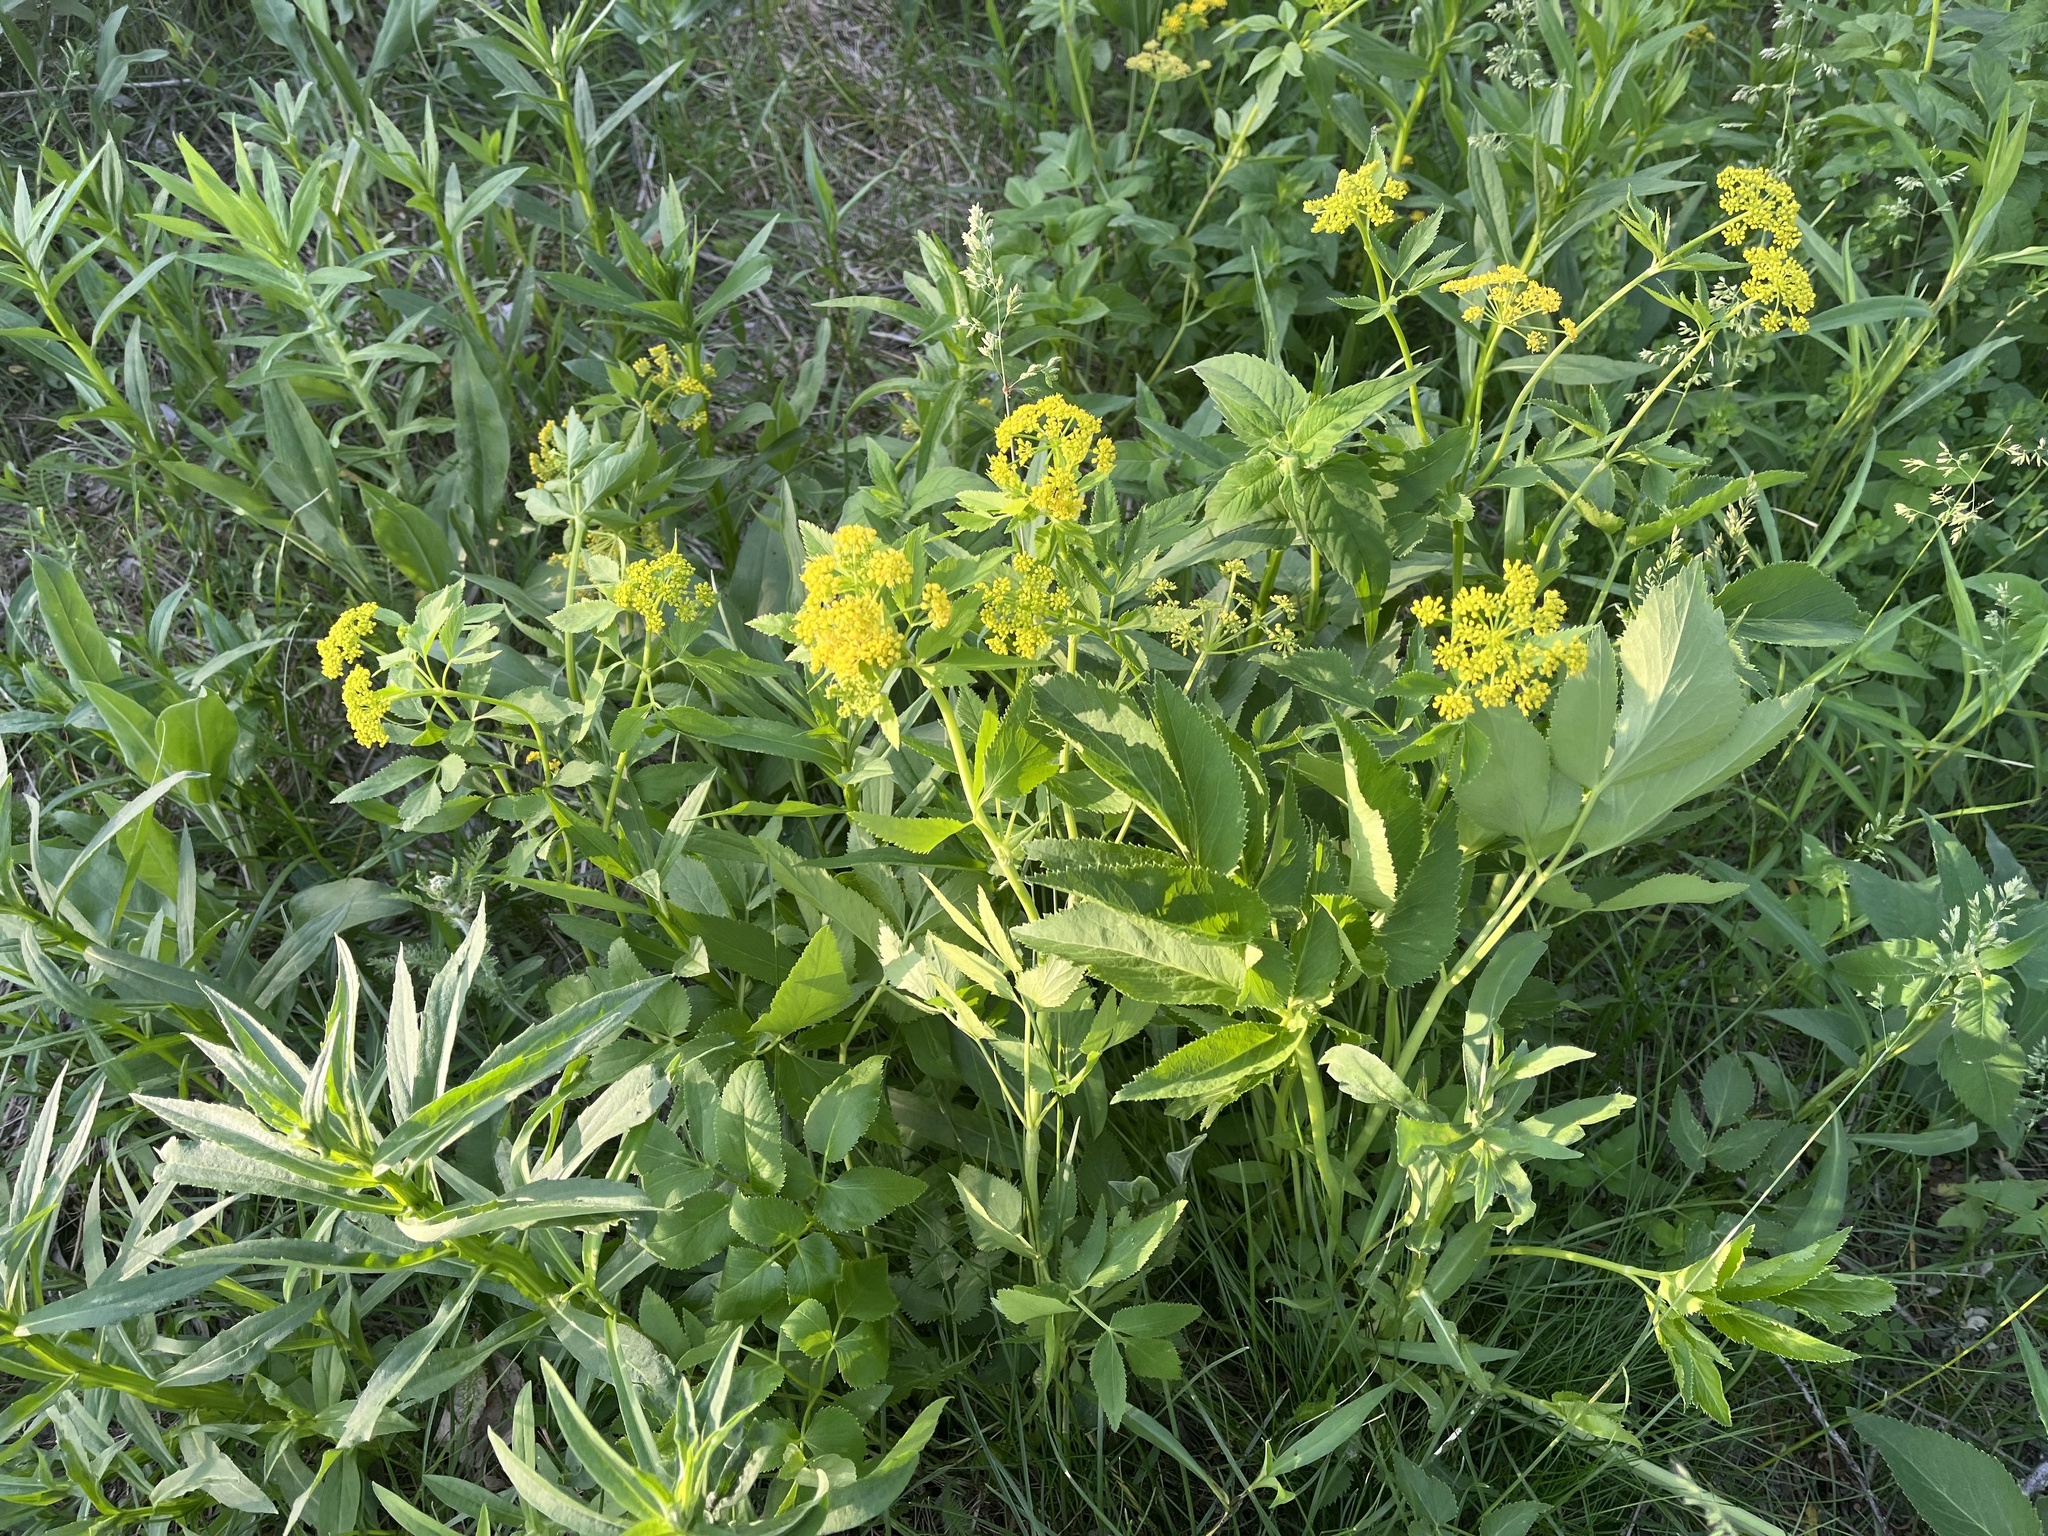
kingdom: Plantae
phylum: Tracheophyta
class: Magnoliopsida
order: Apiales
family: Apiaceae
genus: Zizia
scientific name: Zizia aurea
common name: Golden alexanders
